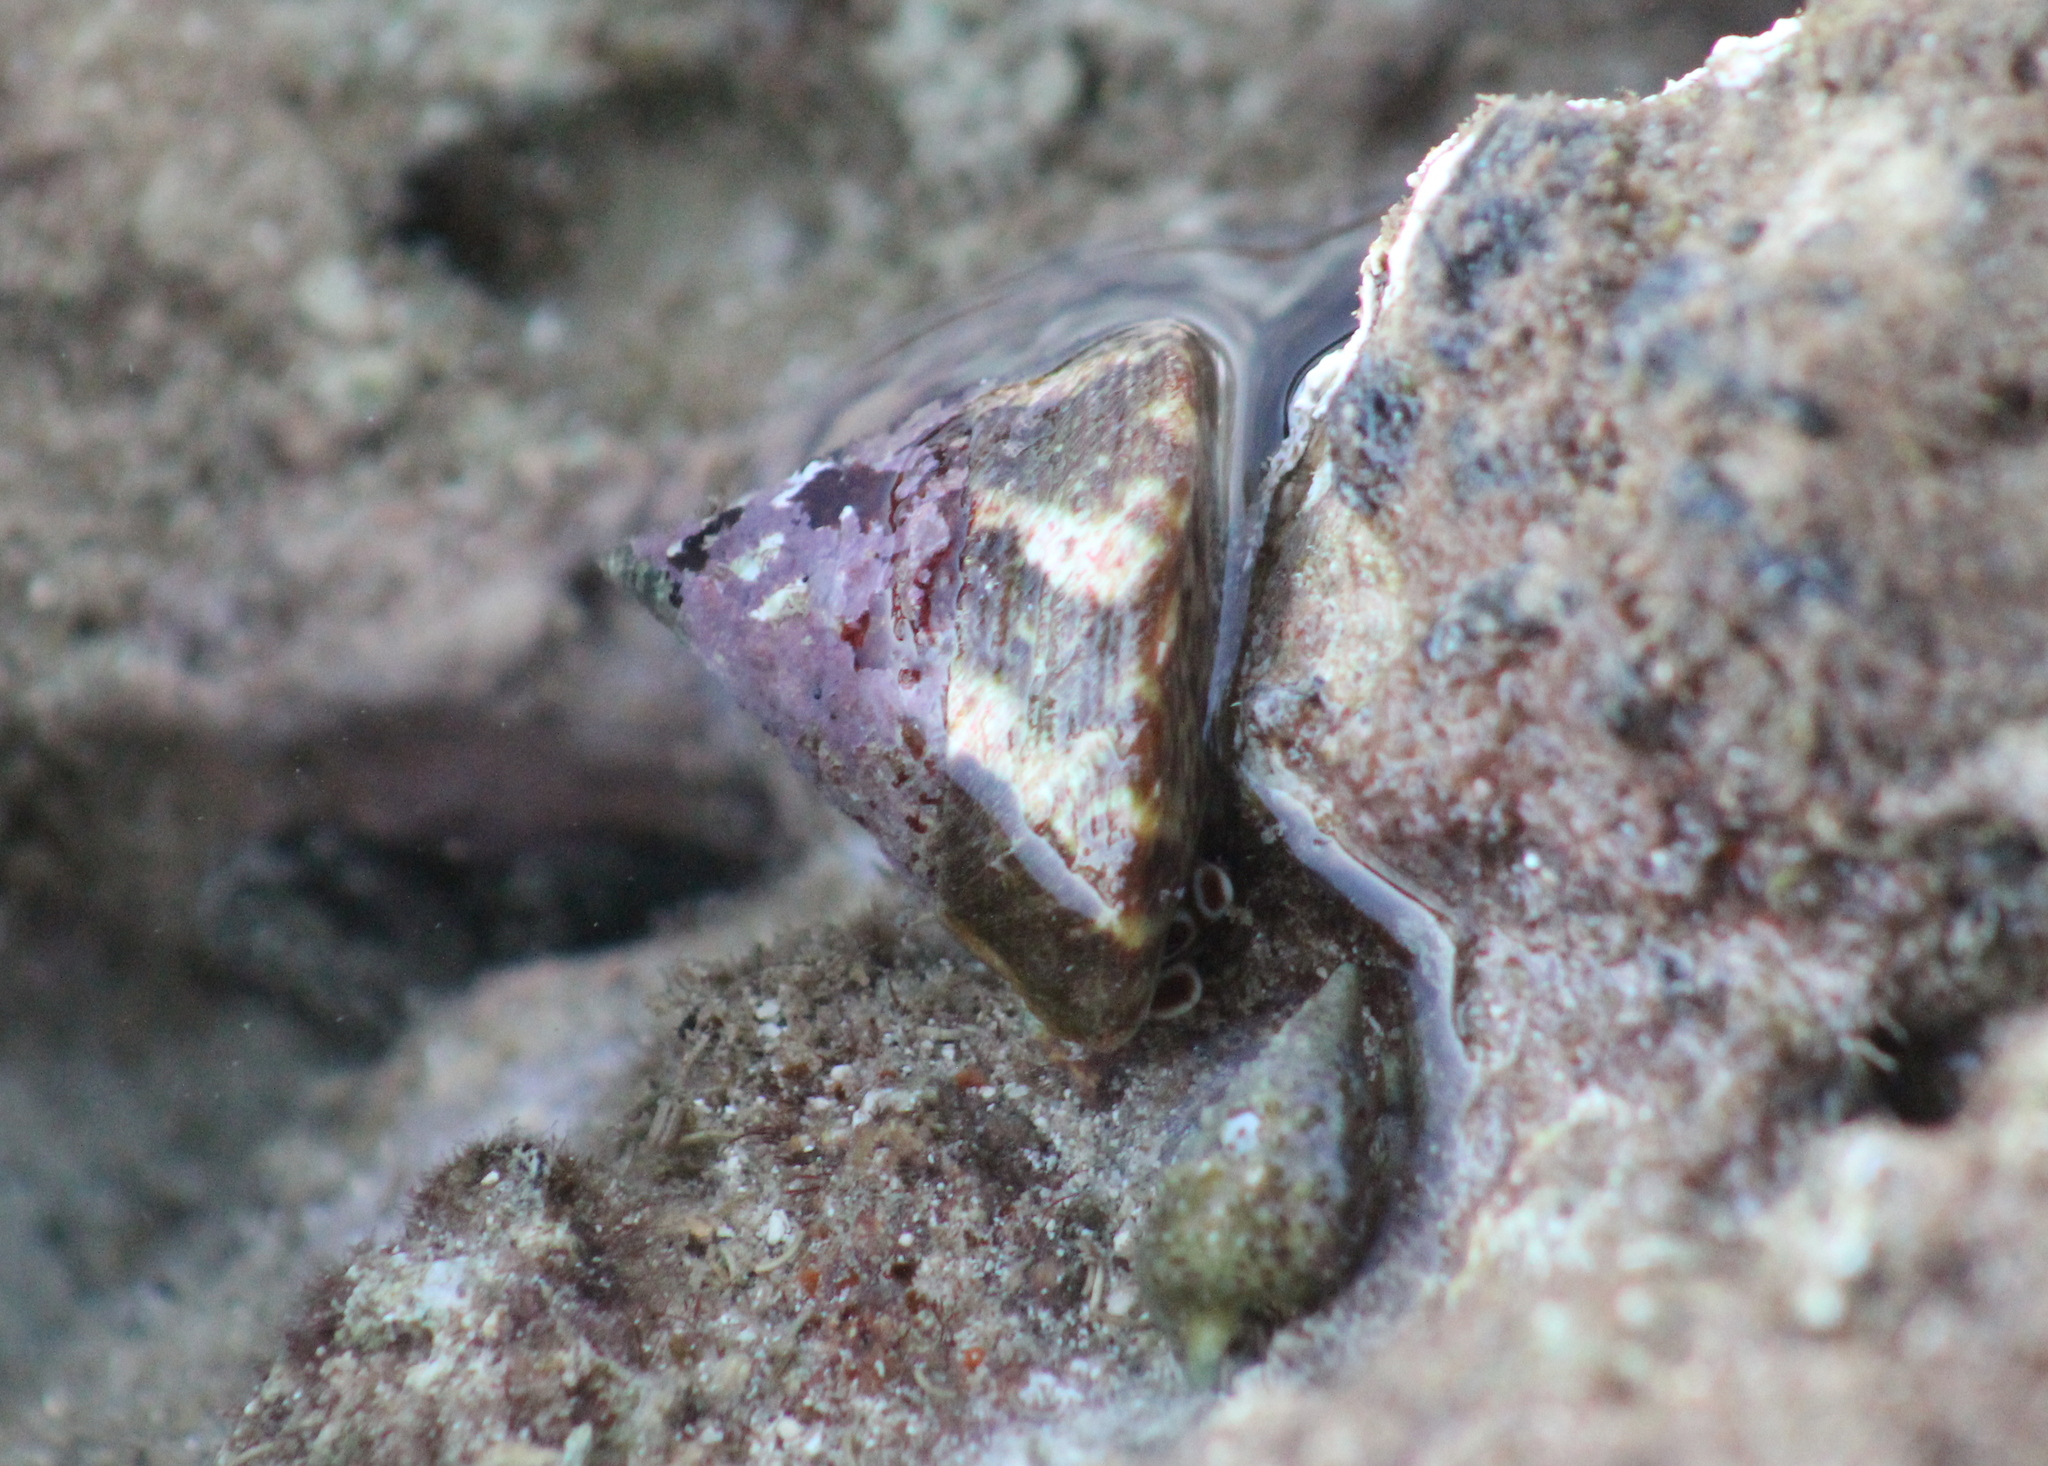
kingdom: Animalia
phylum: Mollusca
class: Gastropoda
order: Trochida
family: Tegulidae
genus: Rochia
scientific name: Rochia nilotica
